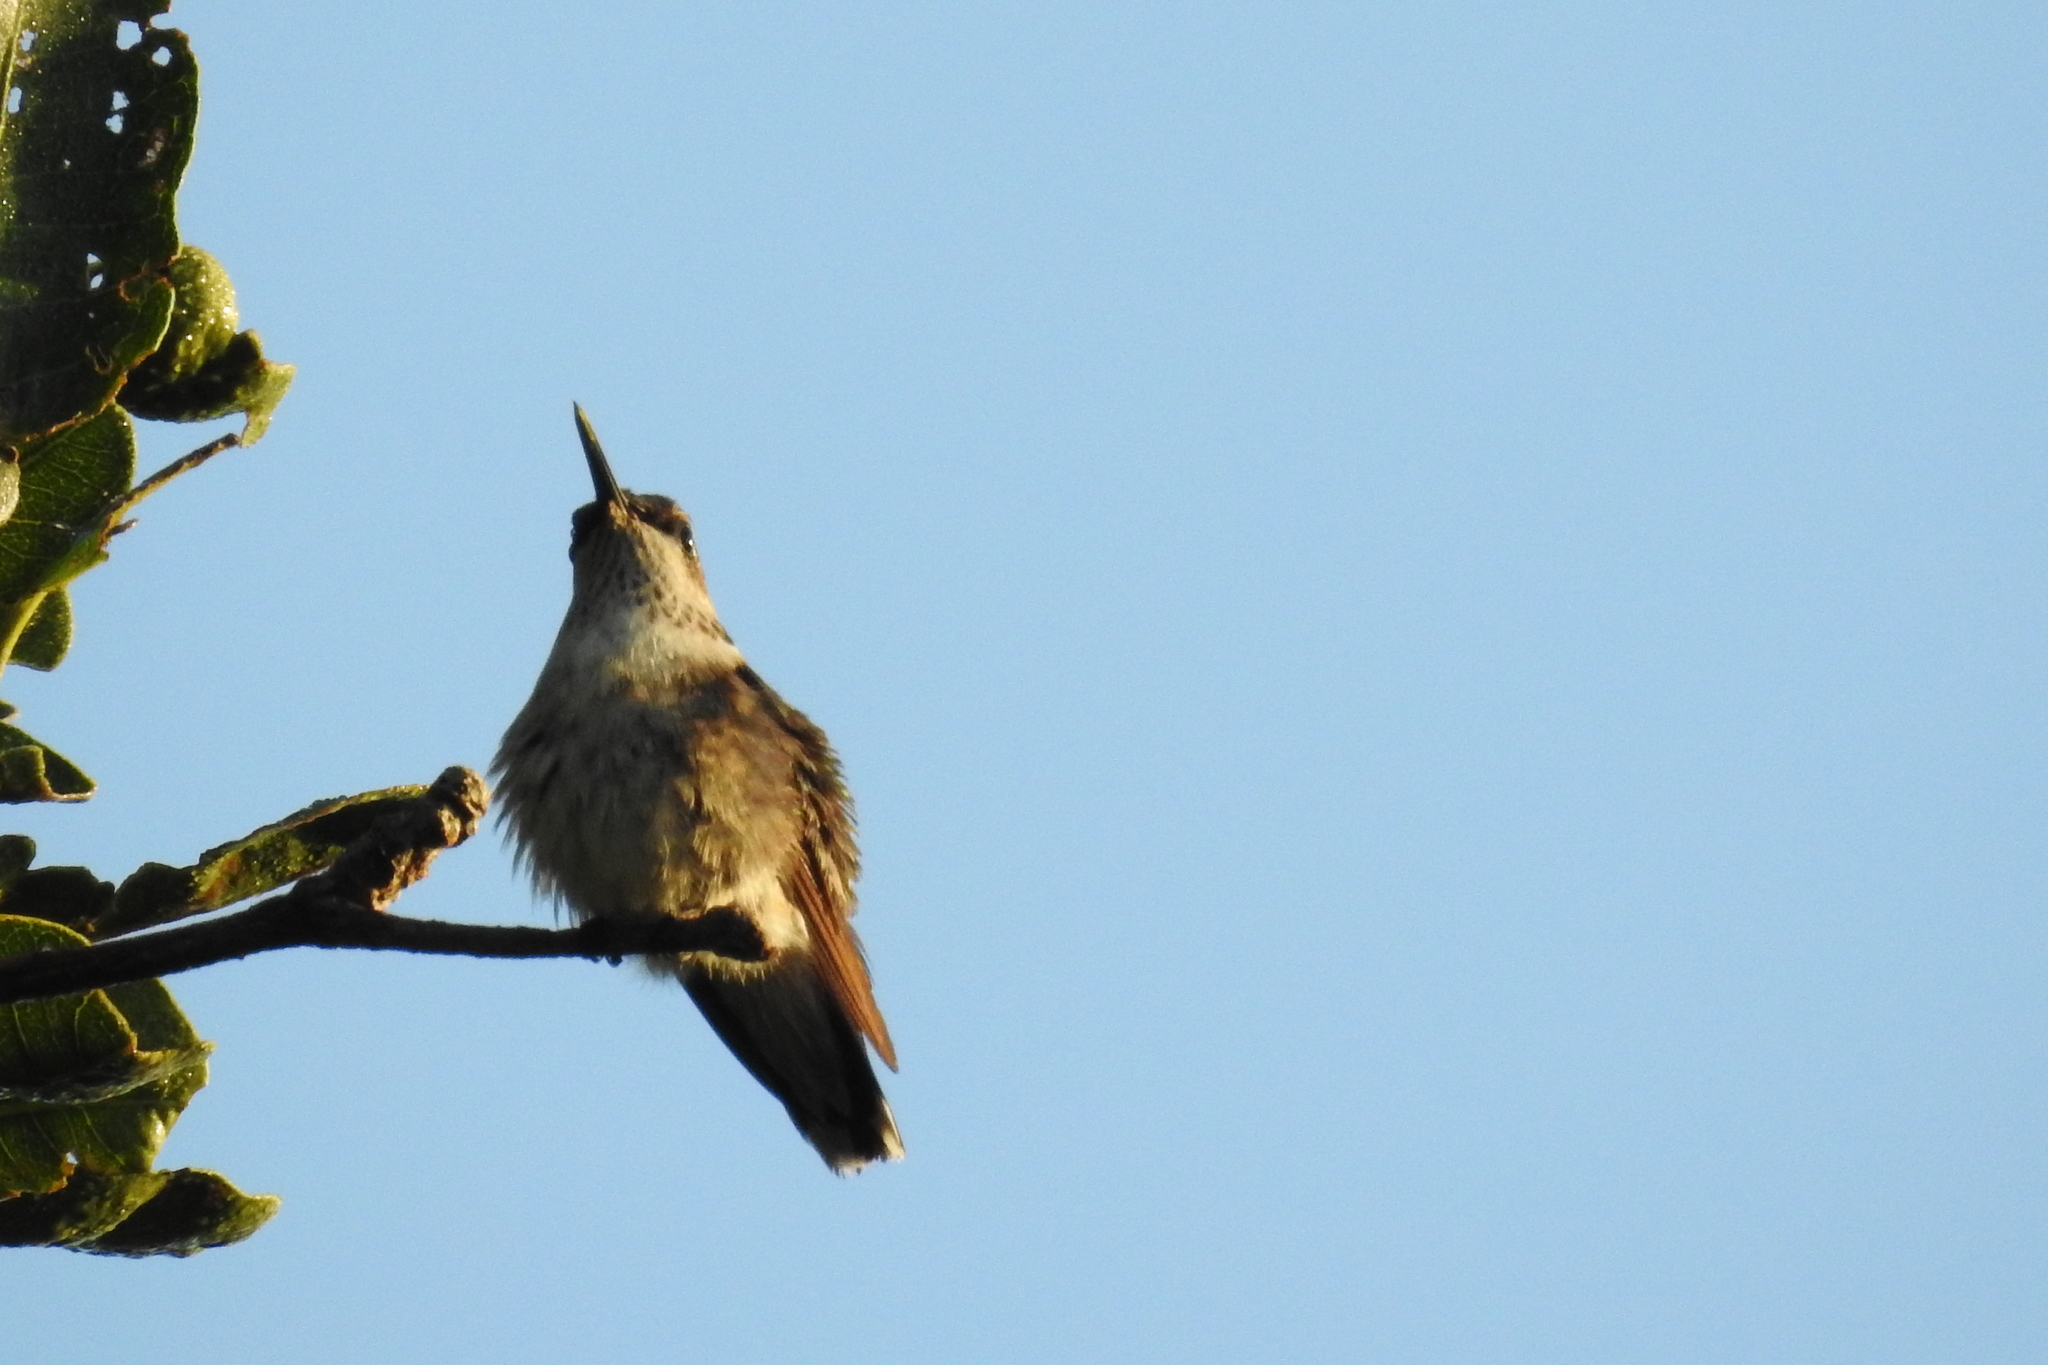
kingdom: Animalia
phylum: Chordata
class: Aves
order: Apodiformes
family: Trochilidae
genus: Archilochus
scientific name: Archilochus colubris
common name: Ruby-throated hummingbird
